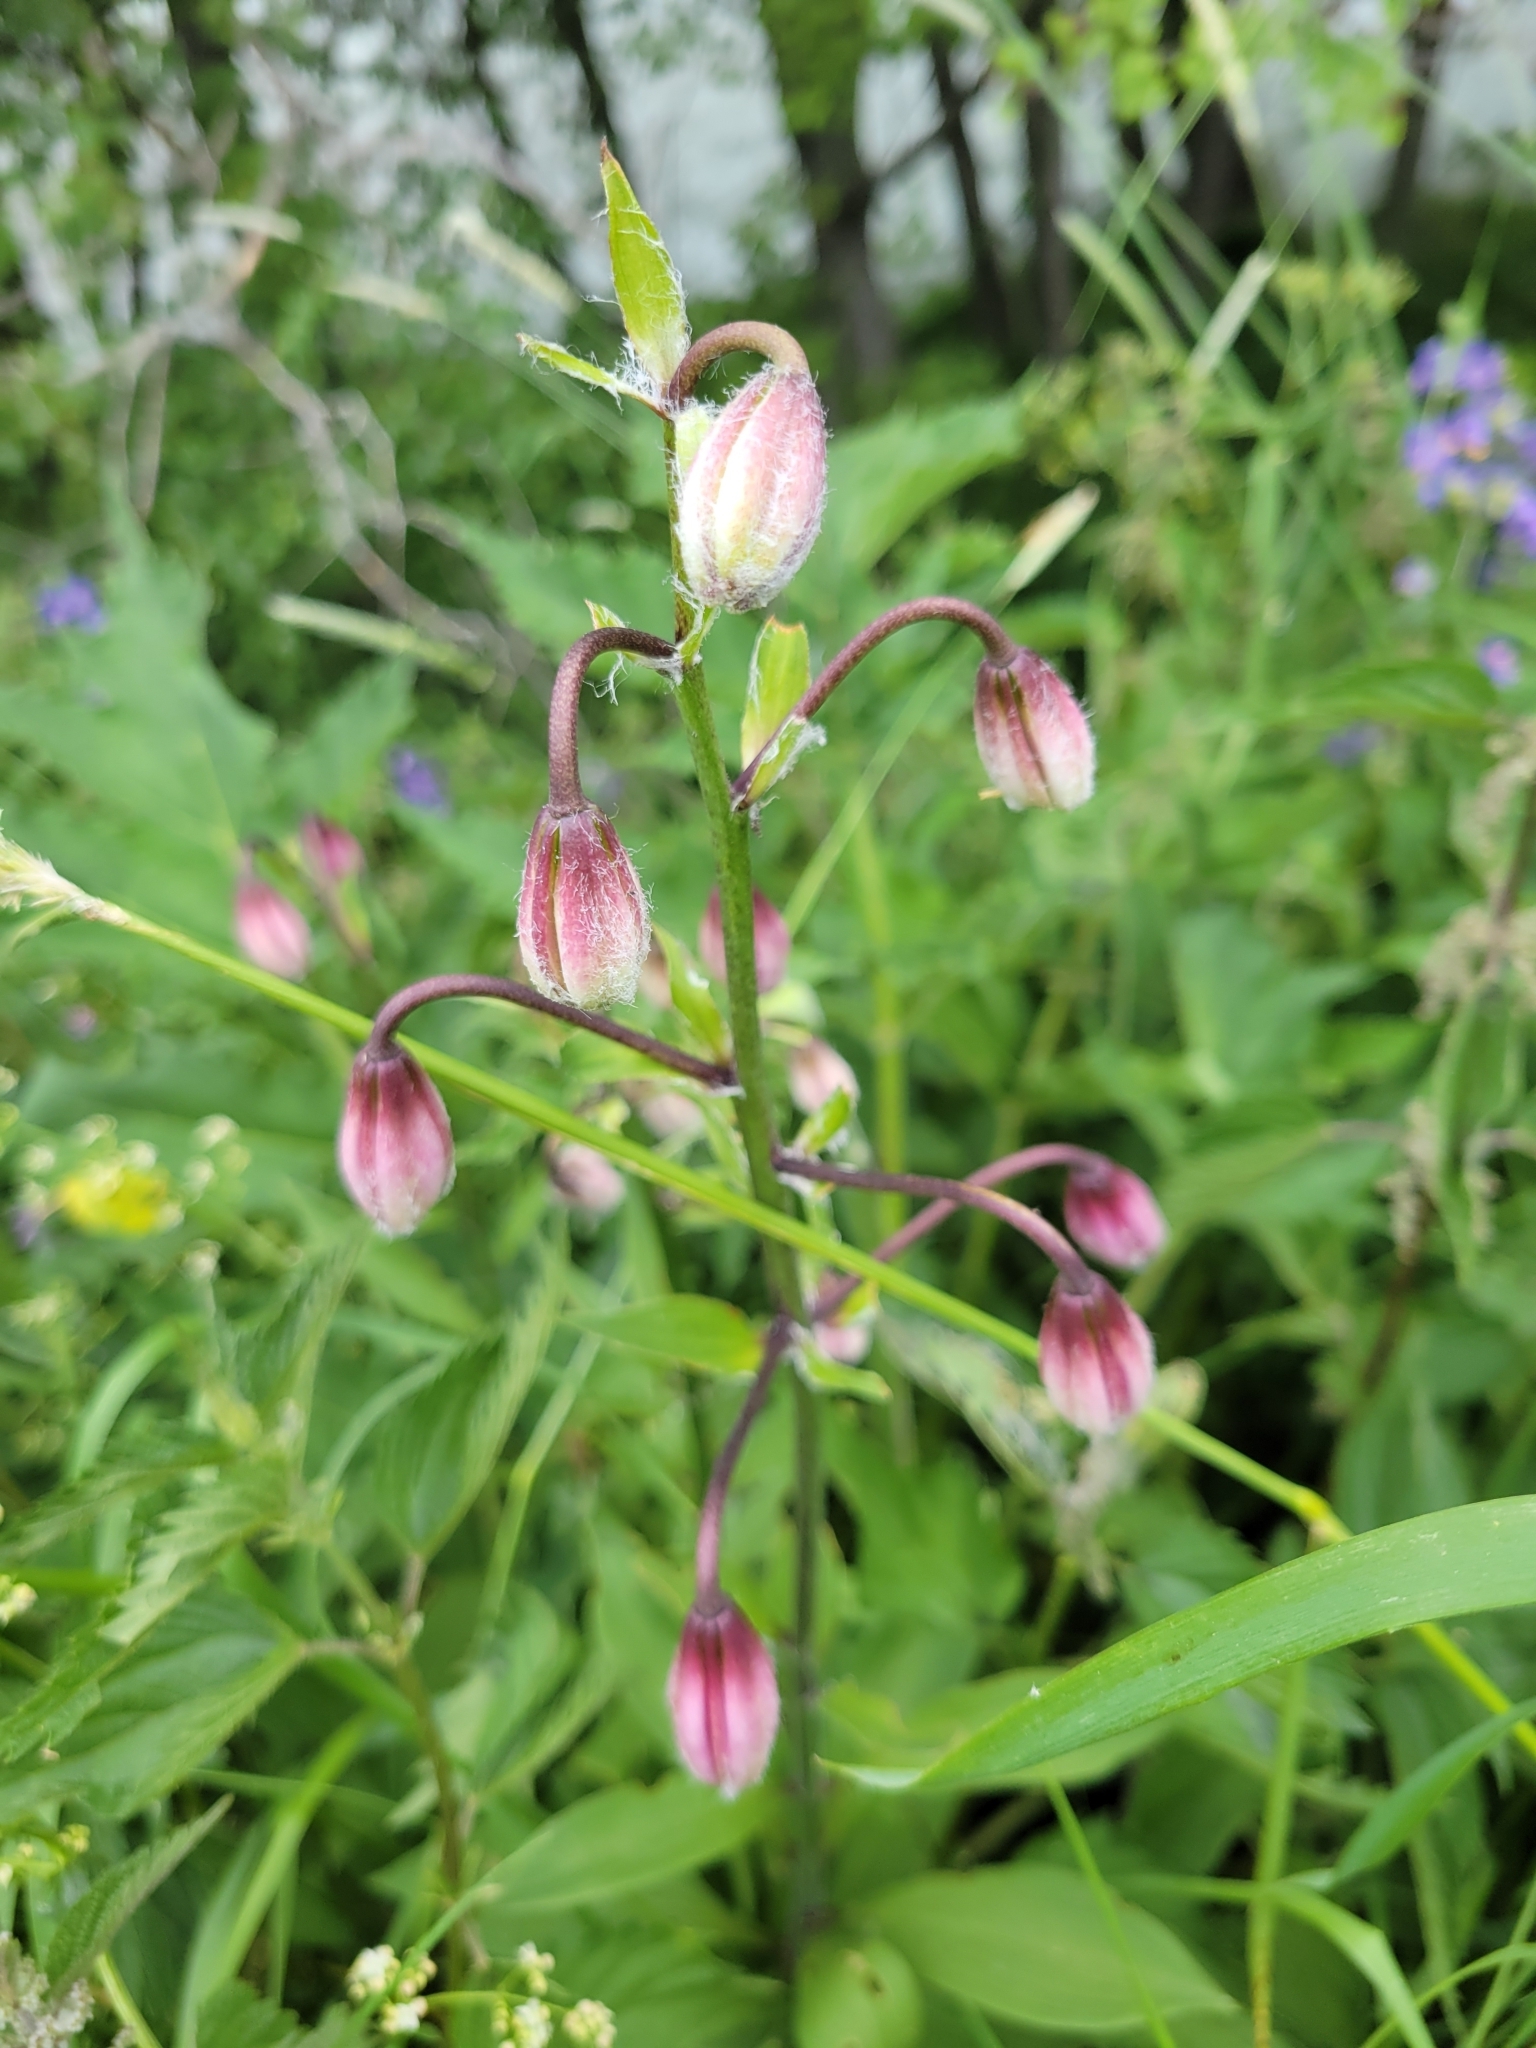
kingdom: Plantae
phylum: Tracheophyta
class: Liliopsida
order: Liliales
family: Liliaceae
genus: Lilium
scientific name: Lilium martagon
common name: Martagon lily
